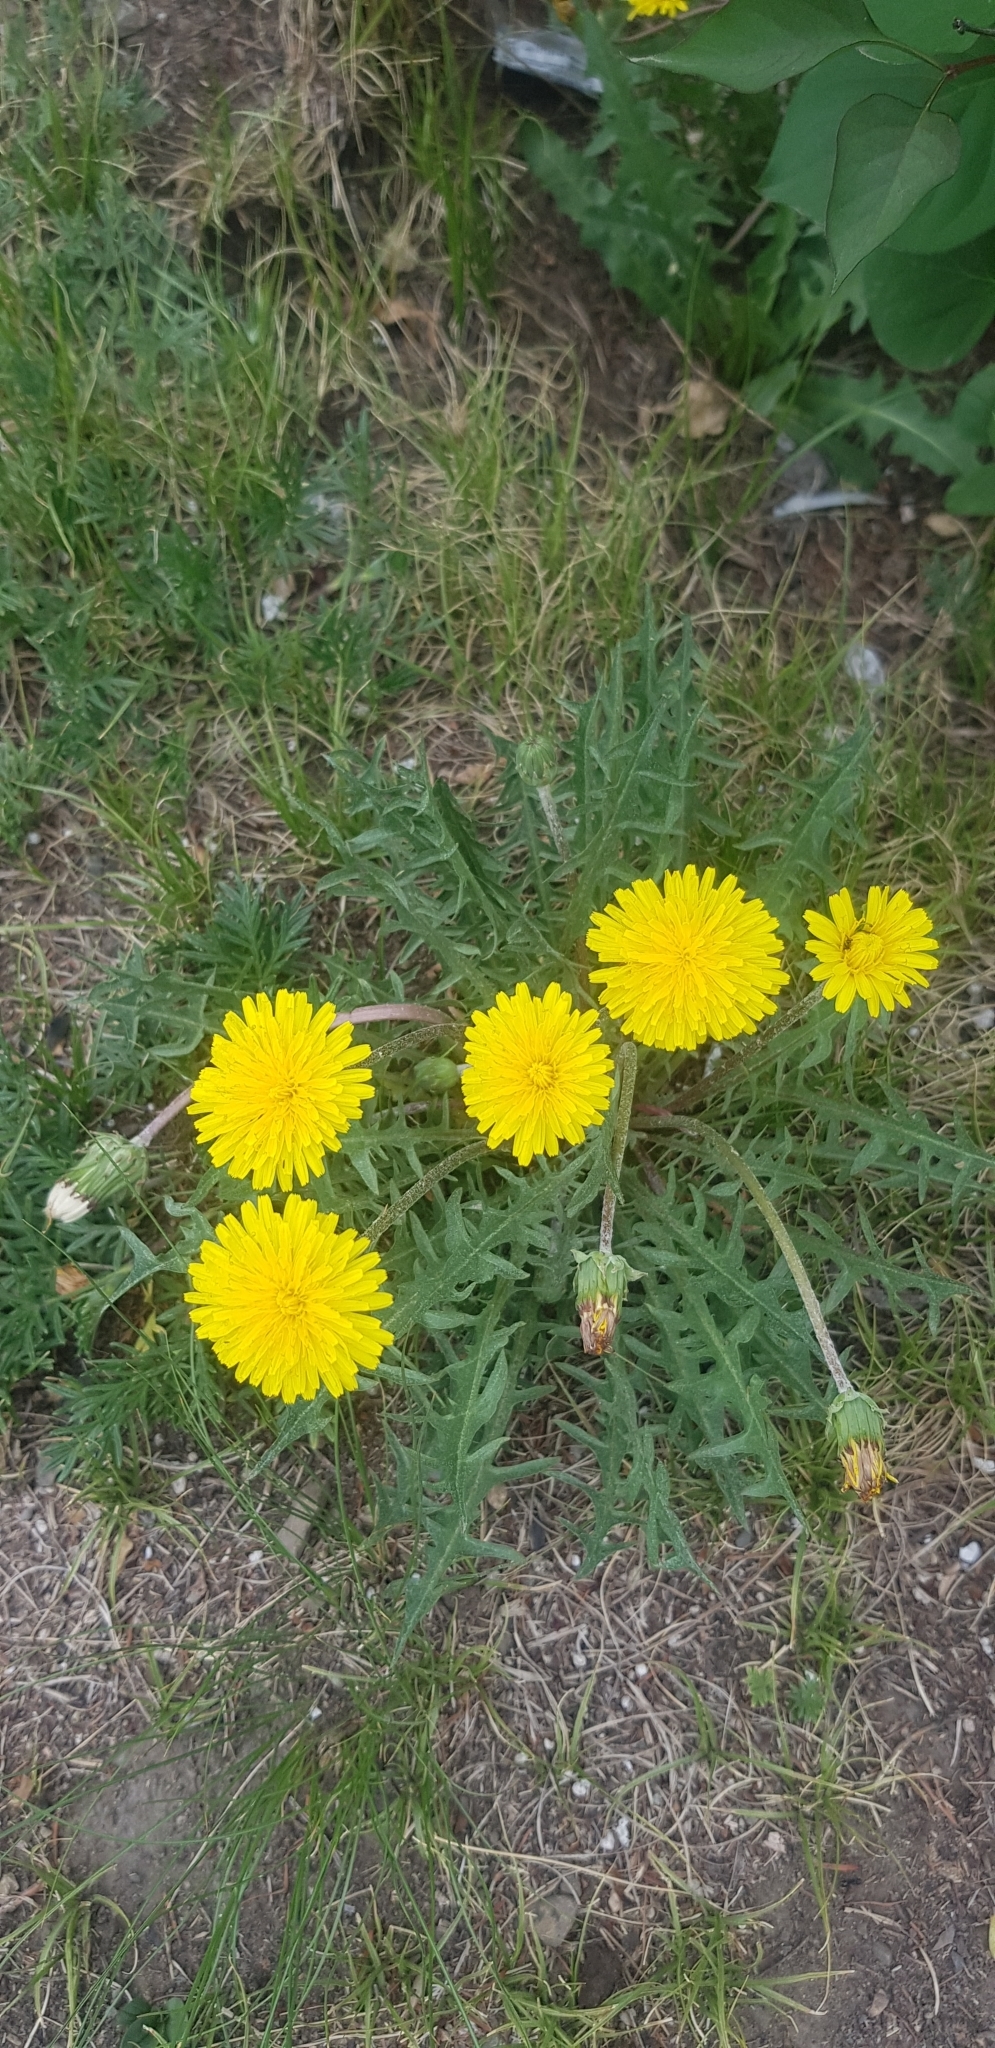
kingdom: Plantae
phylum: Tracheophyta
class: Magnoliopsida
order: Asterales
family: Asteraceae
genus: Taraxacum
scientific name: Taraxacum officinale
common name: Common dandelion
